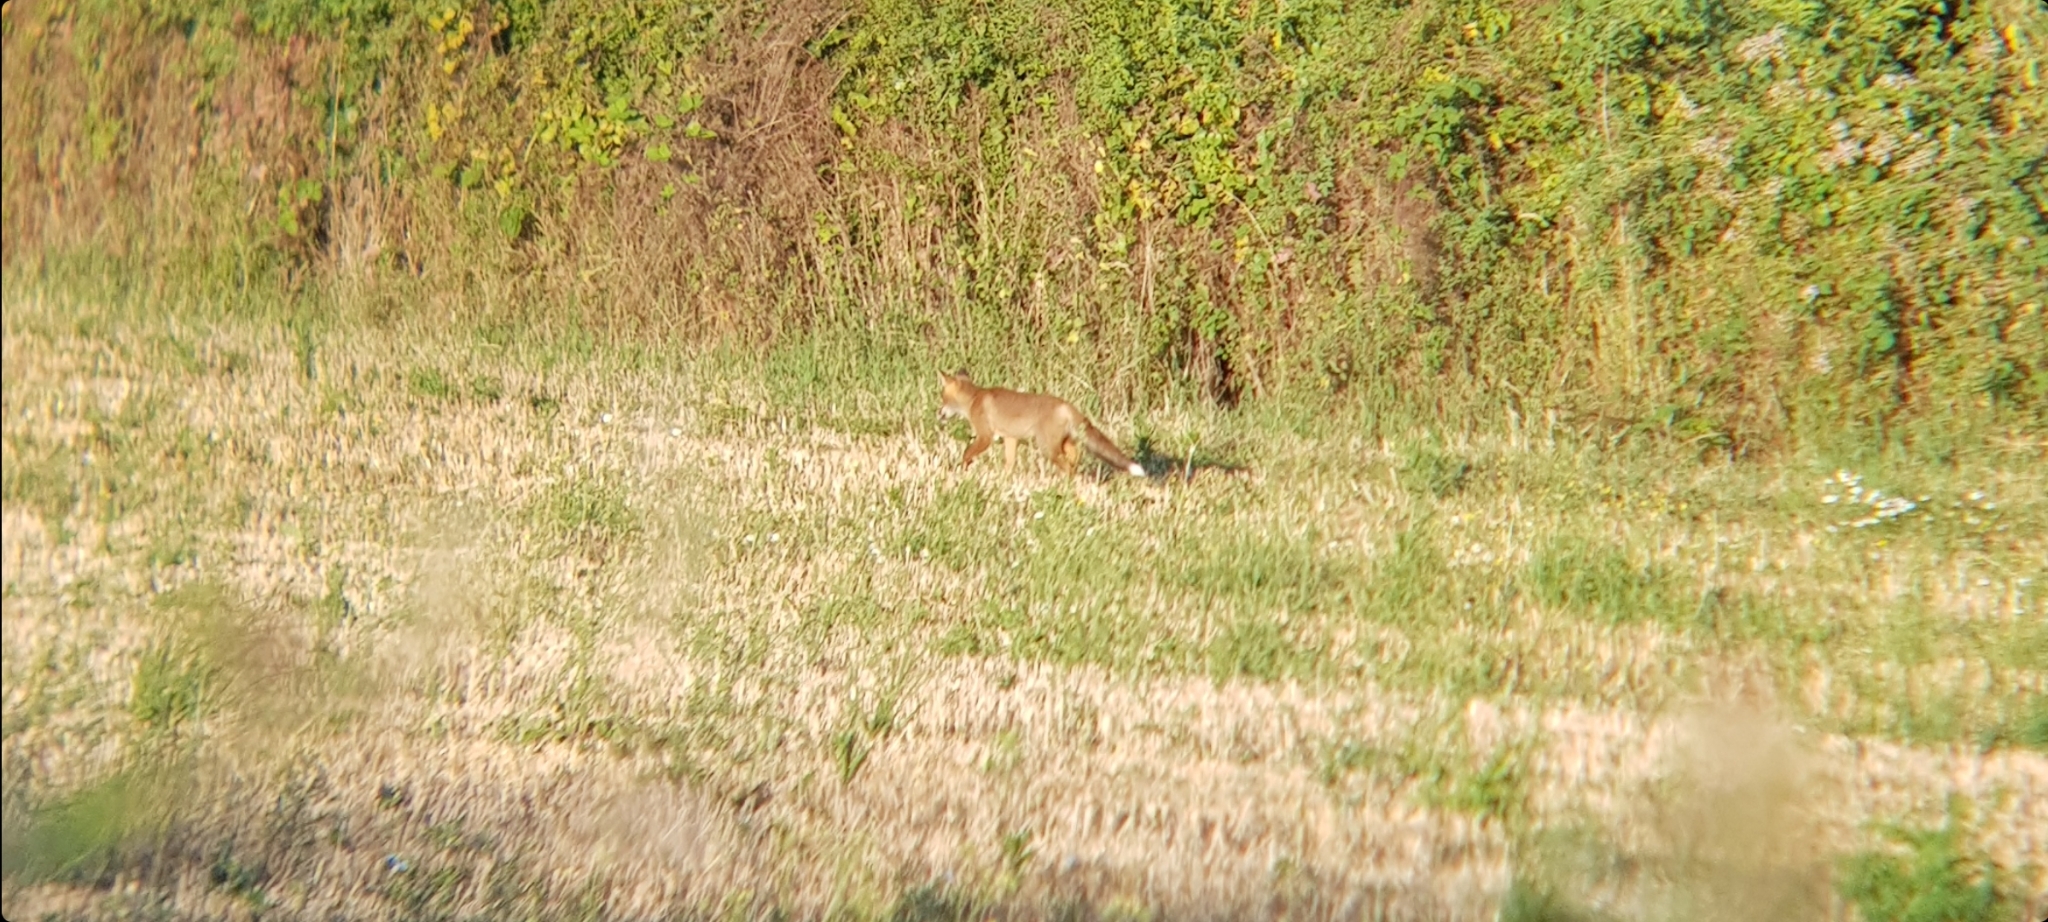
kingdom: Animalia
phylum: Chordata
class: Mammalia
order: Carnivora
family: Canidae
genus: Vulpes
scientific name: Vulpes vulpes
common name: Red fox
